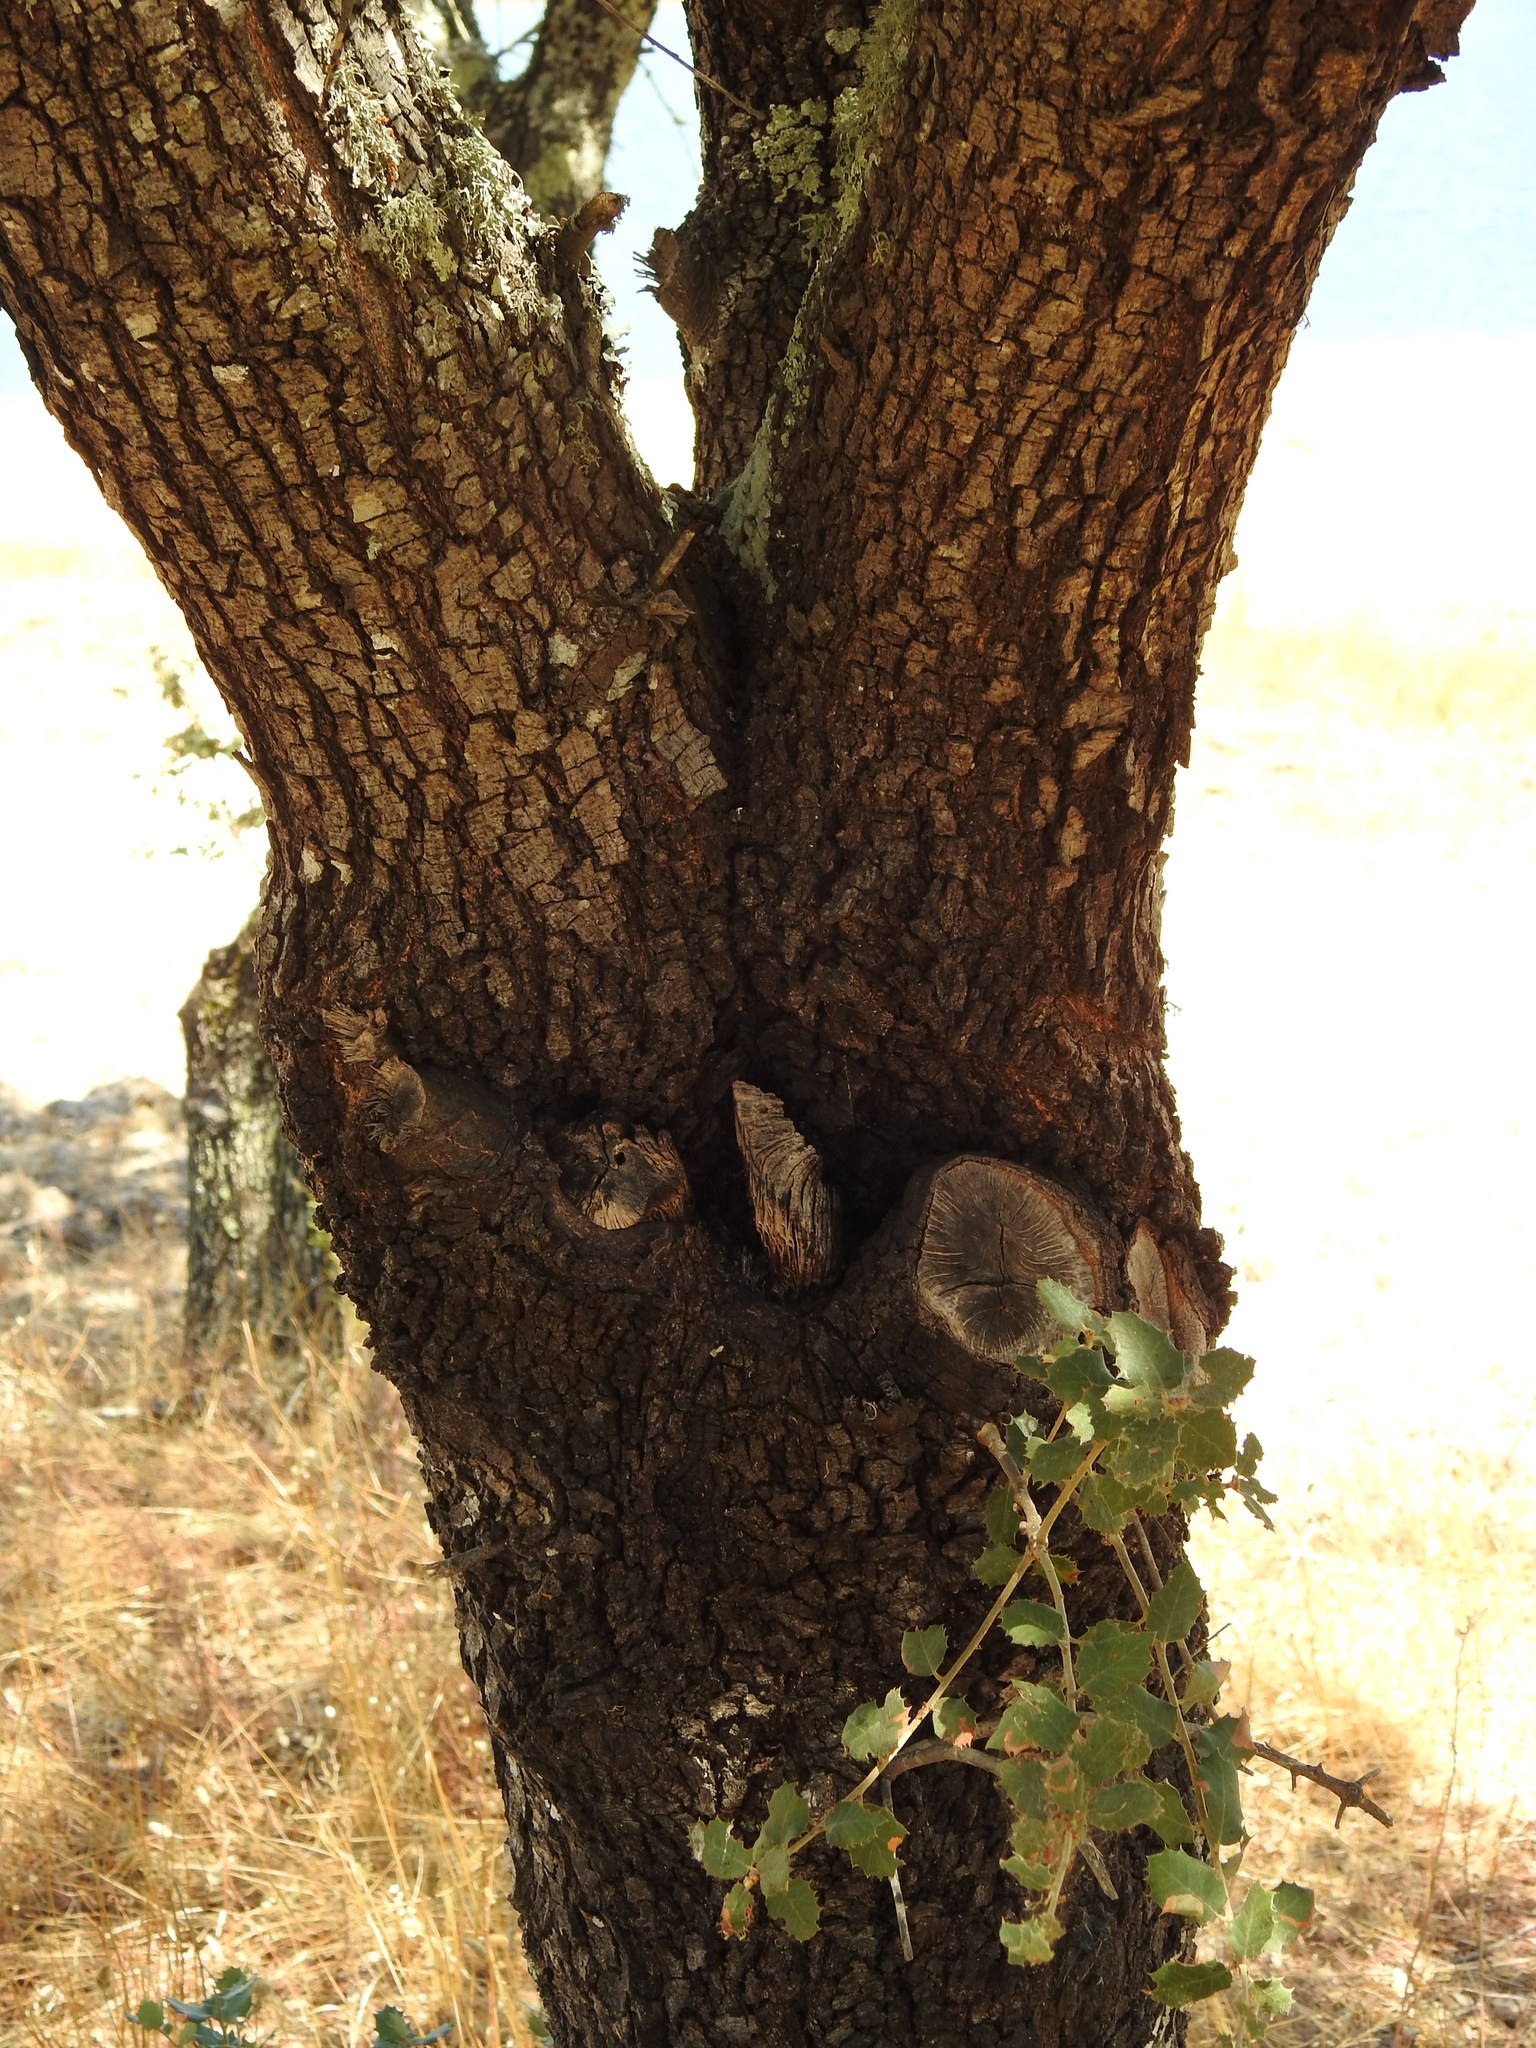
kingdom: Plantae
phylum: Tracheophyta
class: Magnoliopsida
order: Fagales
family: Fagaceae
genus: Quercus
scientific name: Quercus rotundifolia
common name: Holm oak
